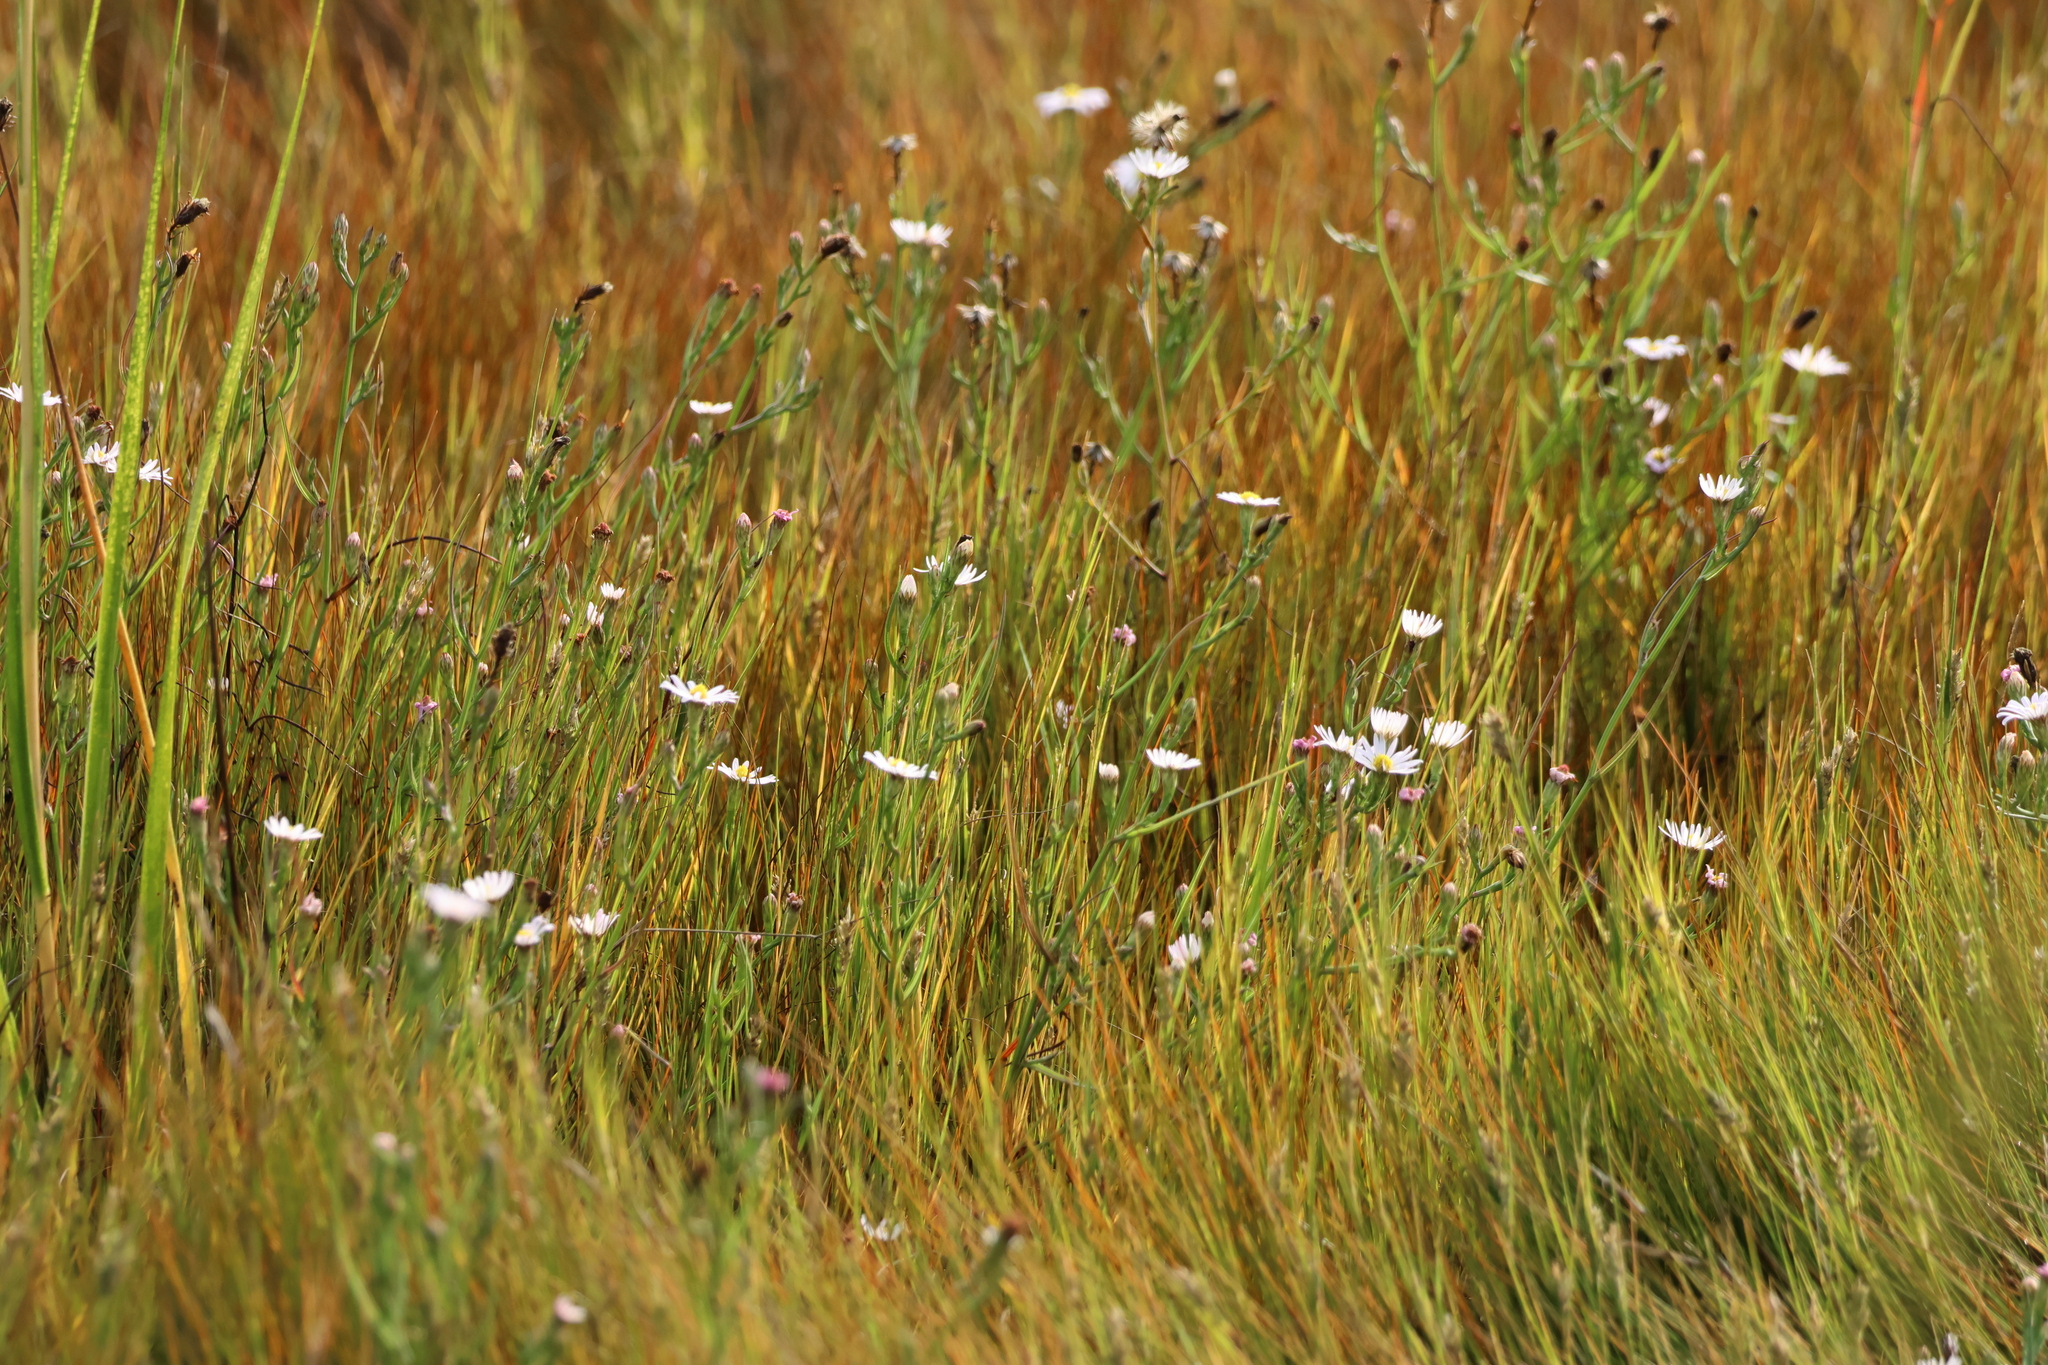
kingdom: Plantae
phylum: Tracheophyta
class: Magnoliopsida
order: Asterales
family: Asteraceae
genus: Symphyotrichum
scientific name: Symphyotrichum tenuifolium
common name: Perennial salt-marsh aster
